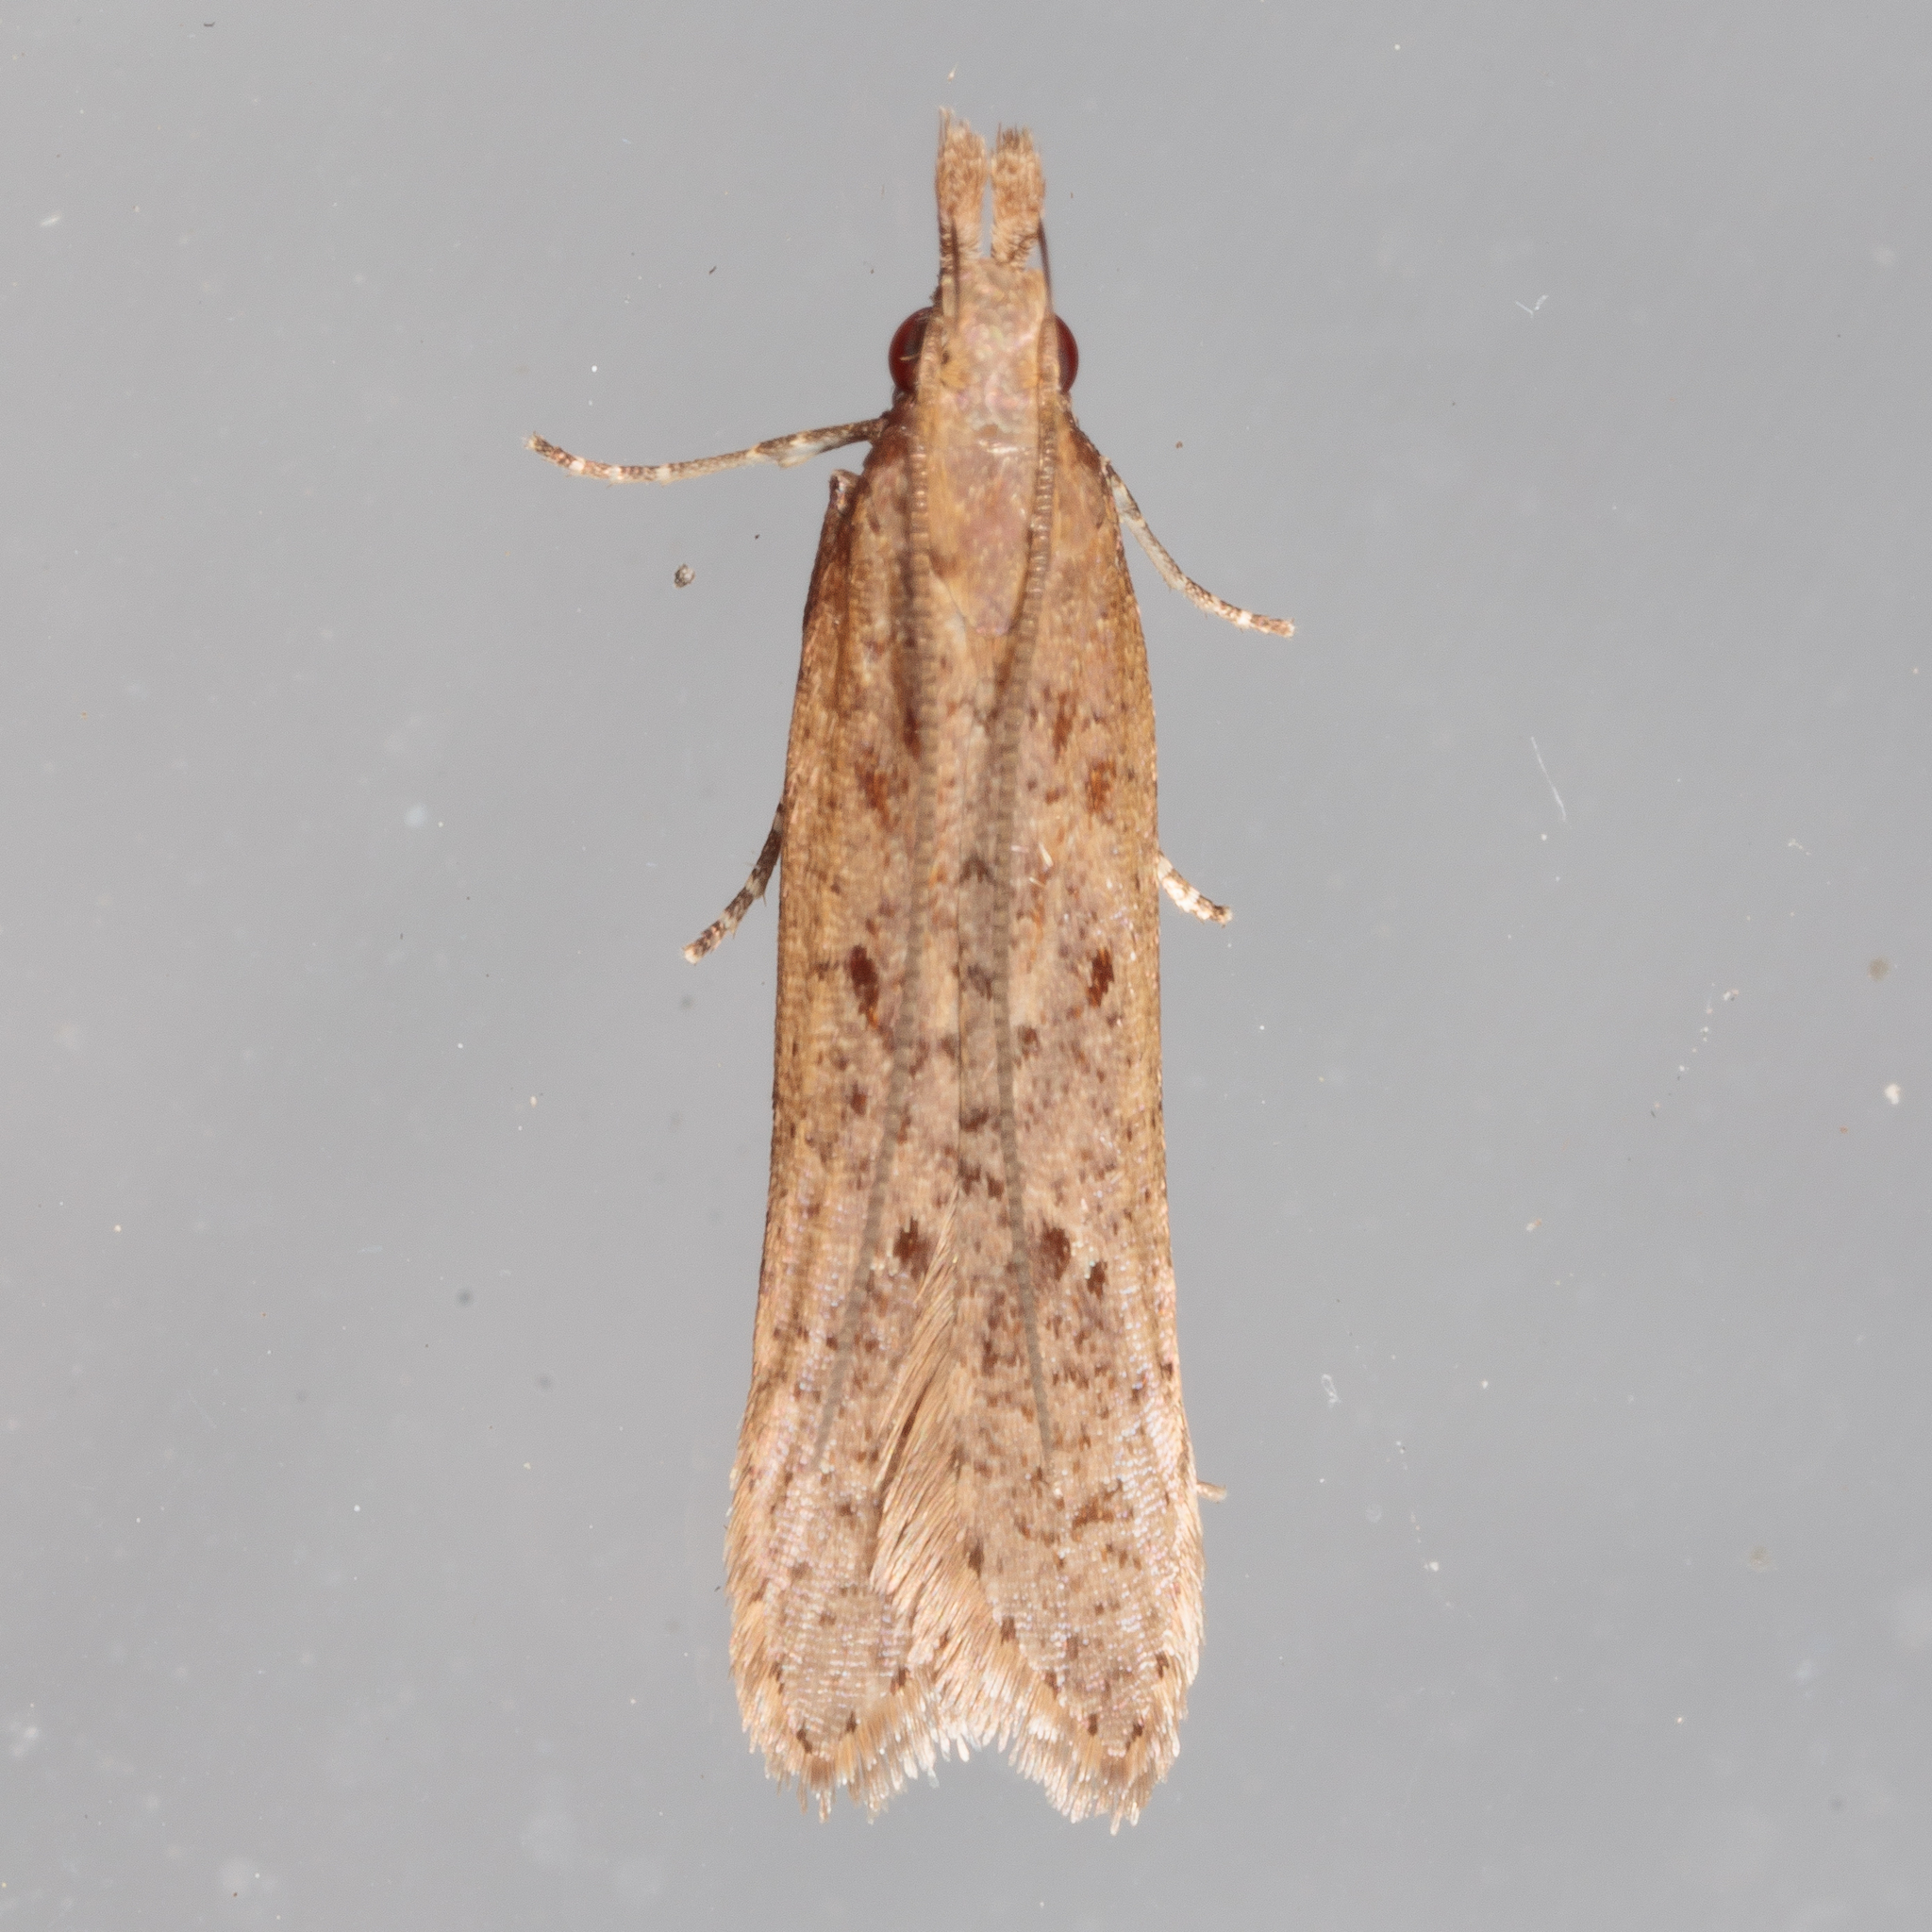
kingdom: Animalia
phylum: Arthropoda
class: Insecta
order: Lepidoptera
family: Gelechiidae
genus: Dichomeris
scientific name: Dichomeris ligulella
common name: Moth
